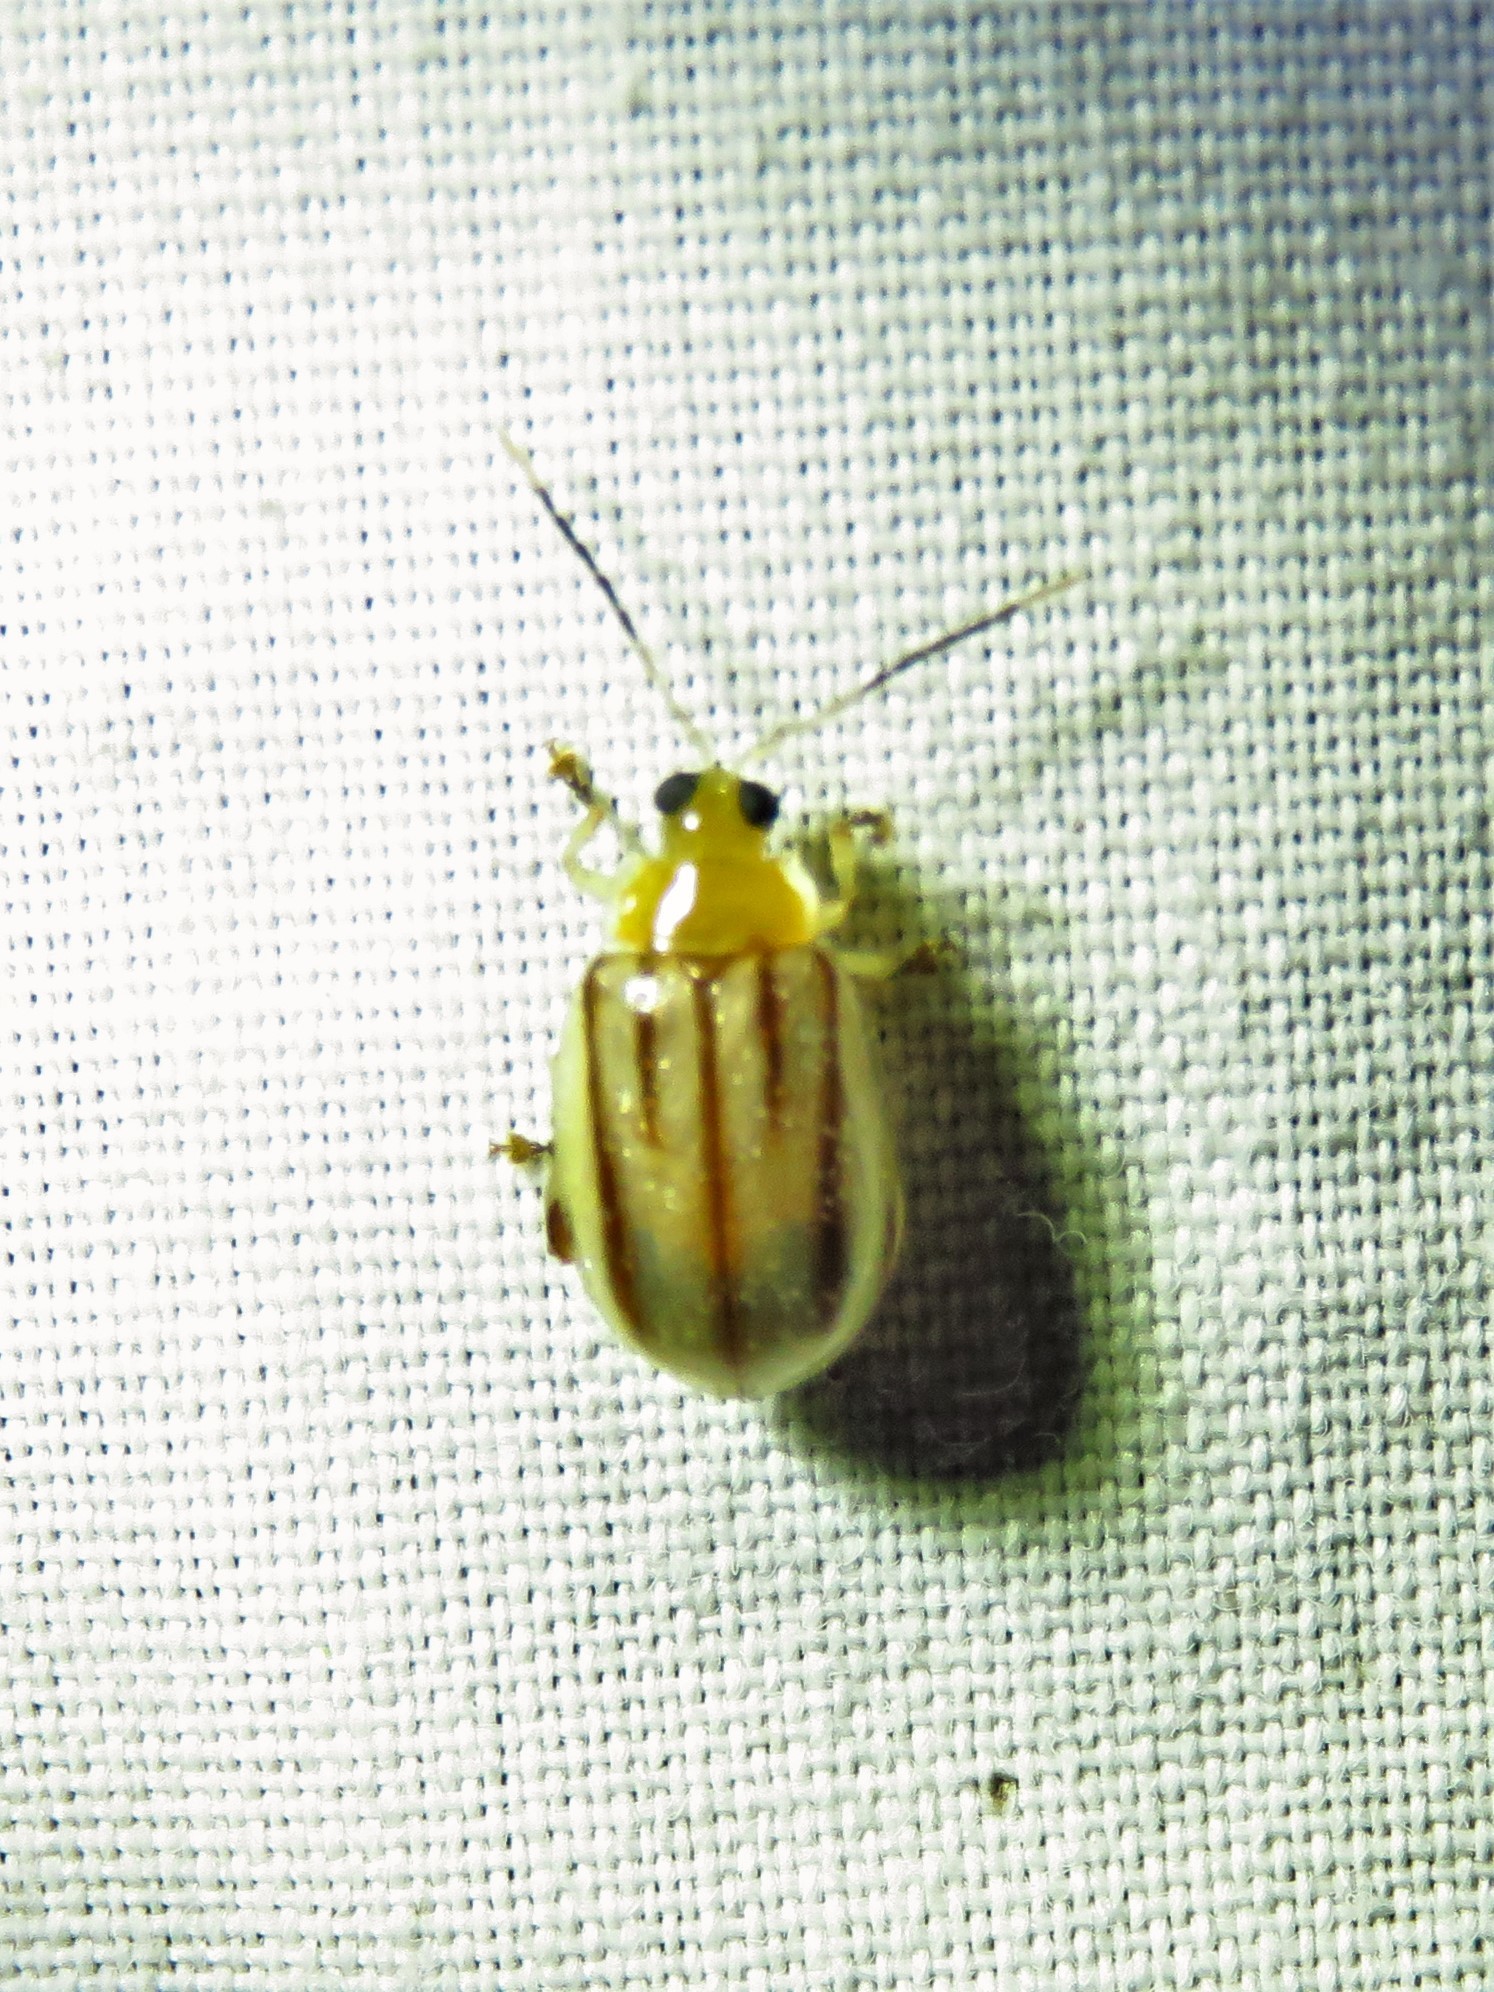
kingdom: Animalia
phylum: Arthropoda
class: Insecta
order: Coleoptera
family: Chrysomelidae
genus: Walterianella
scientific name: Walterianella
